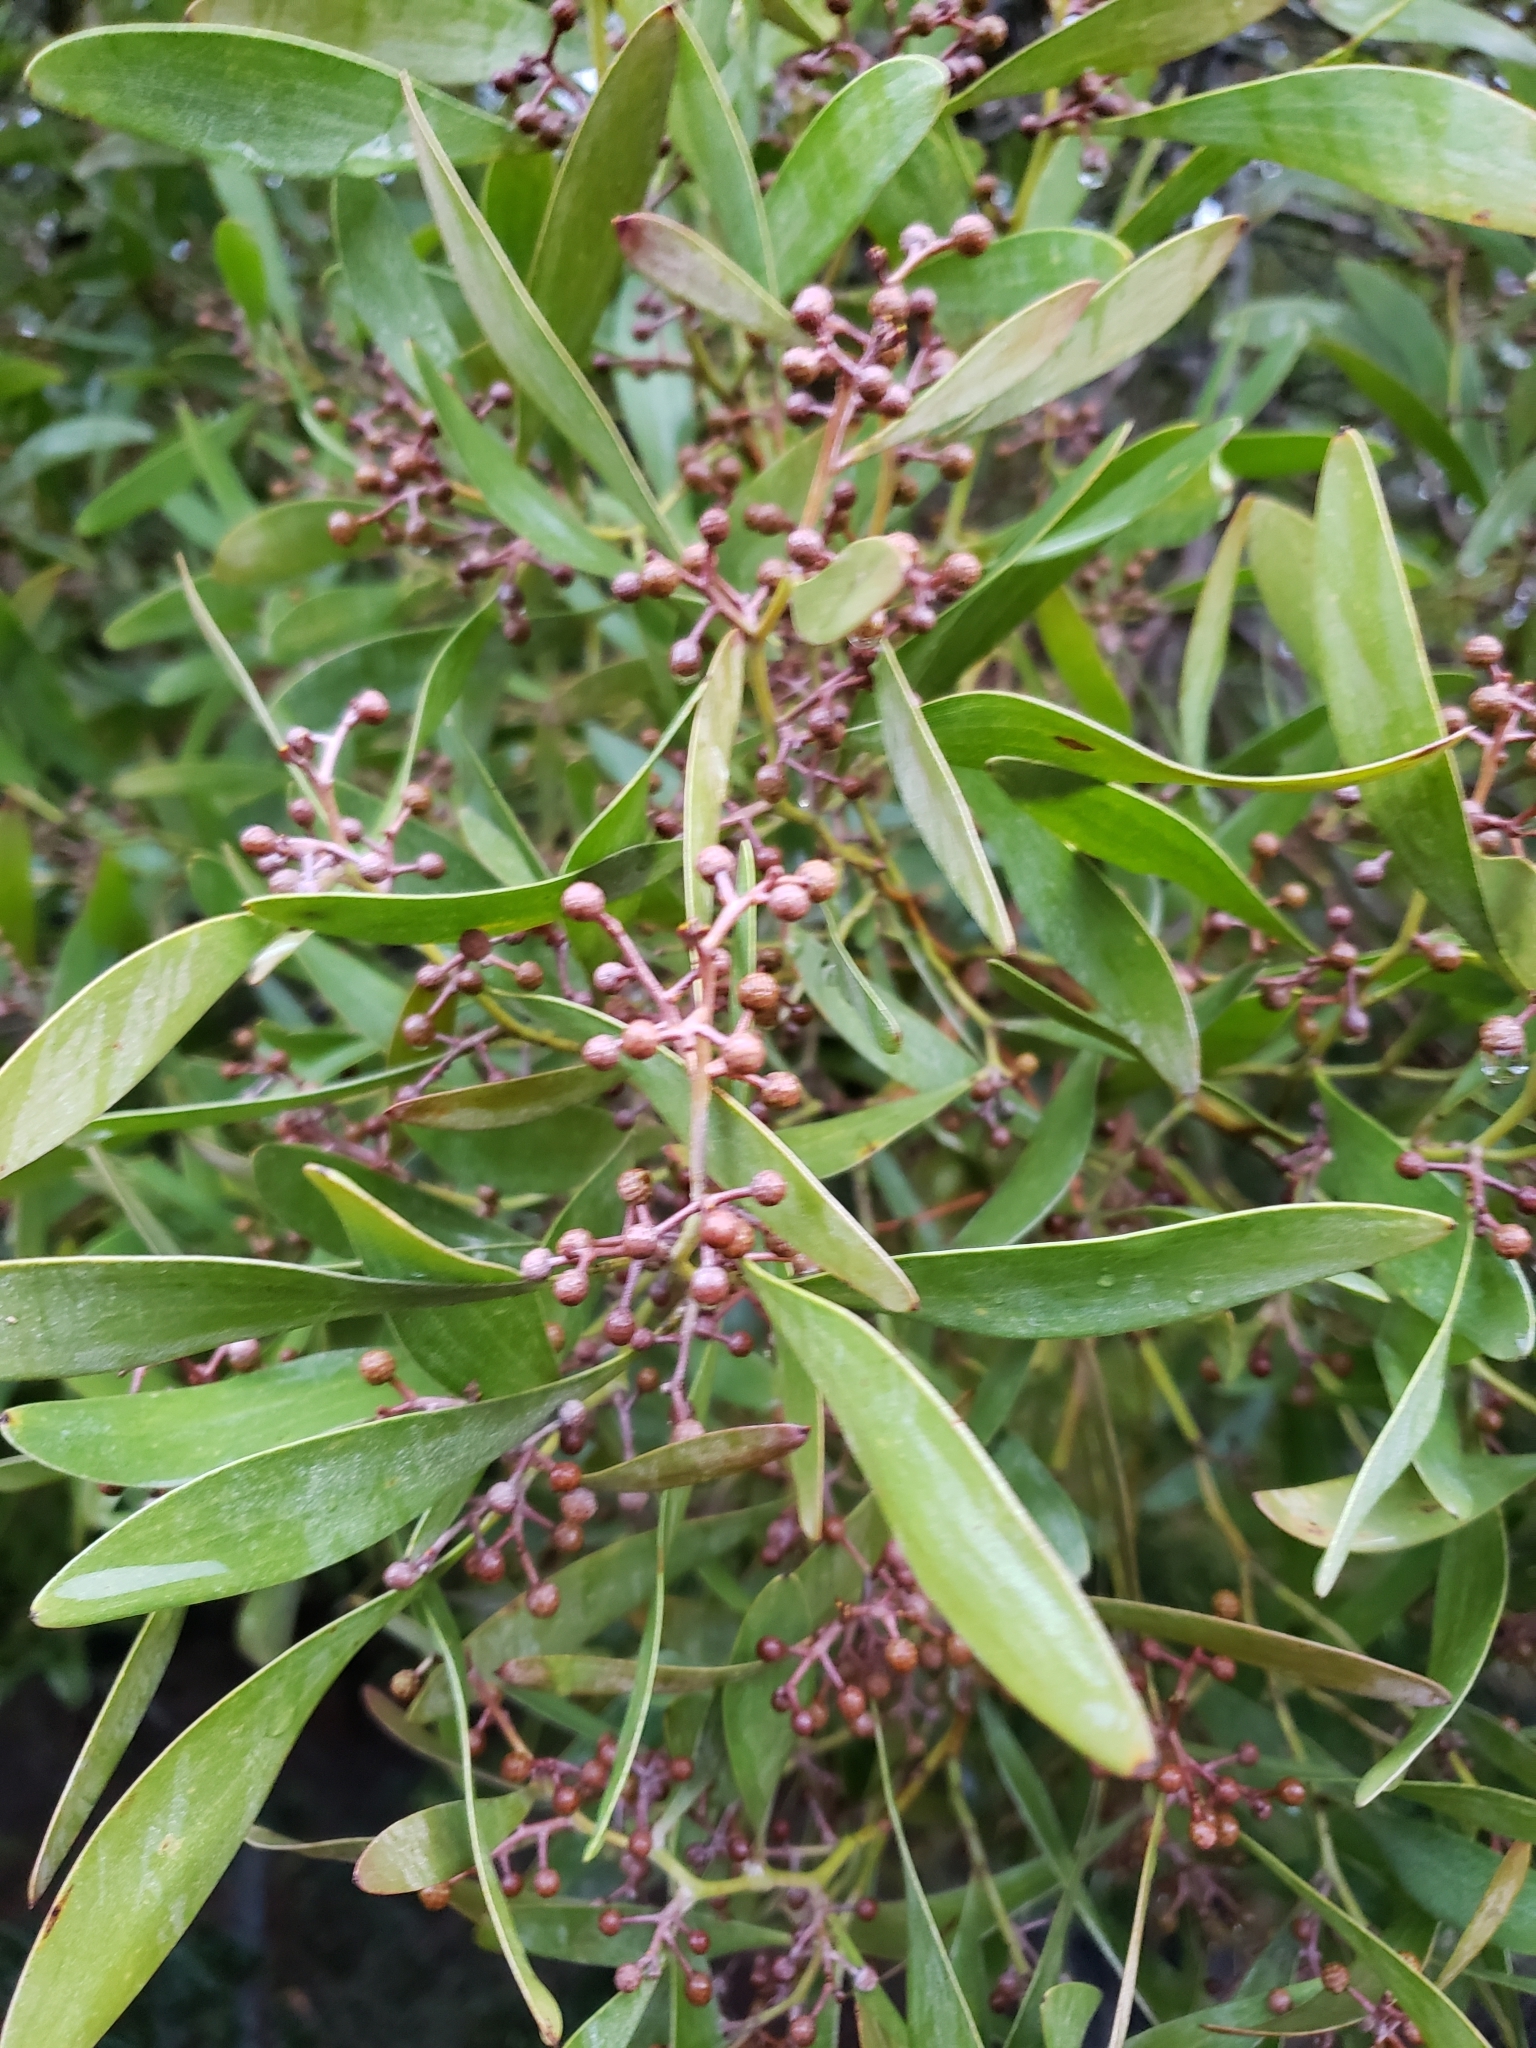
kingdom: Plantae
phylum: Tracheophyta
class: Magnoliopsida
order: Fabales
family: Fabaceae
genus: Acacia
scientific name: Acacia melanoxylon
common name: Blackwood
